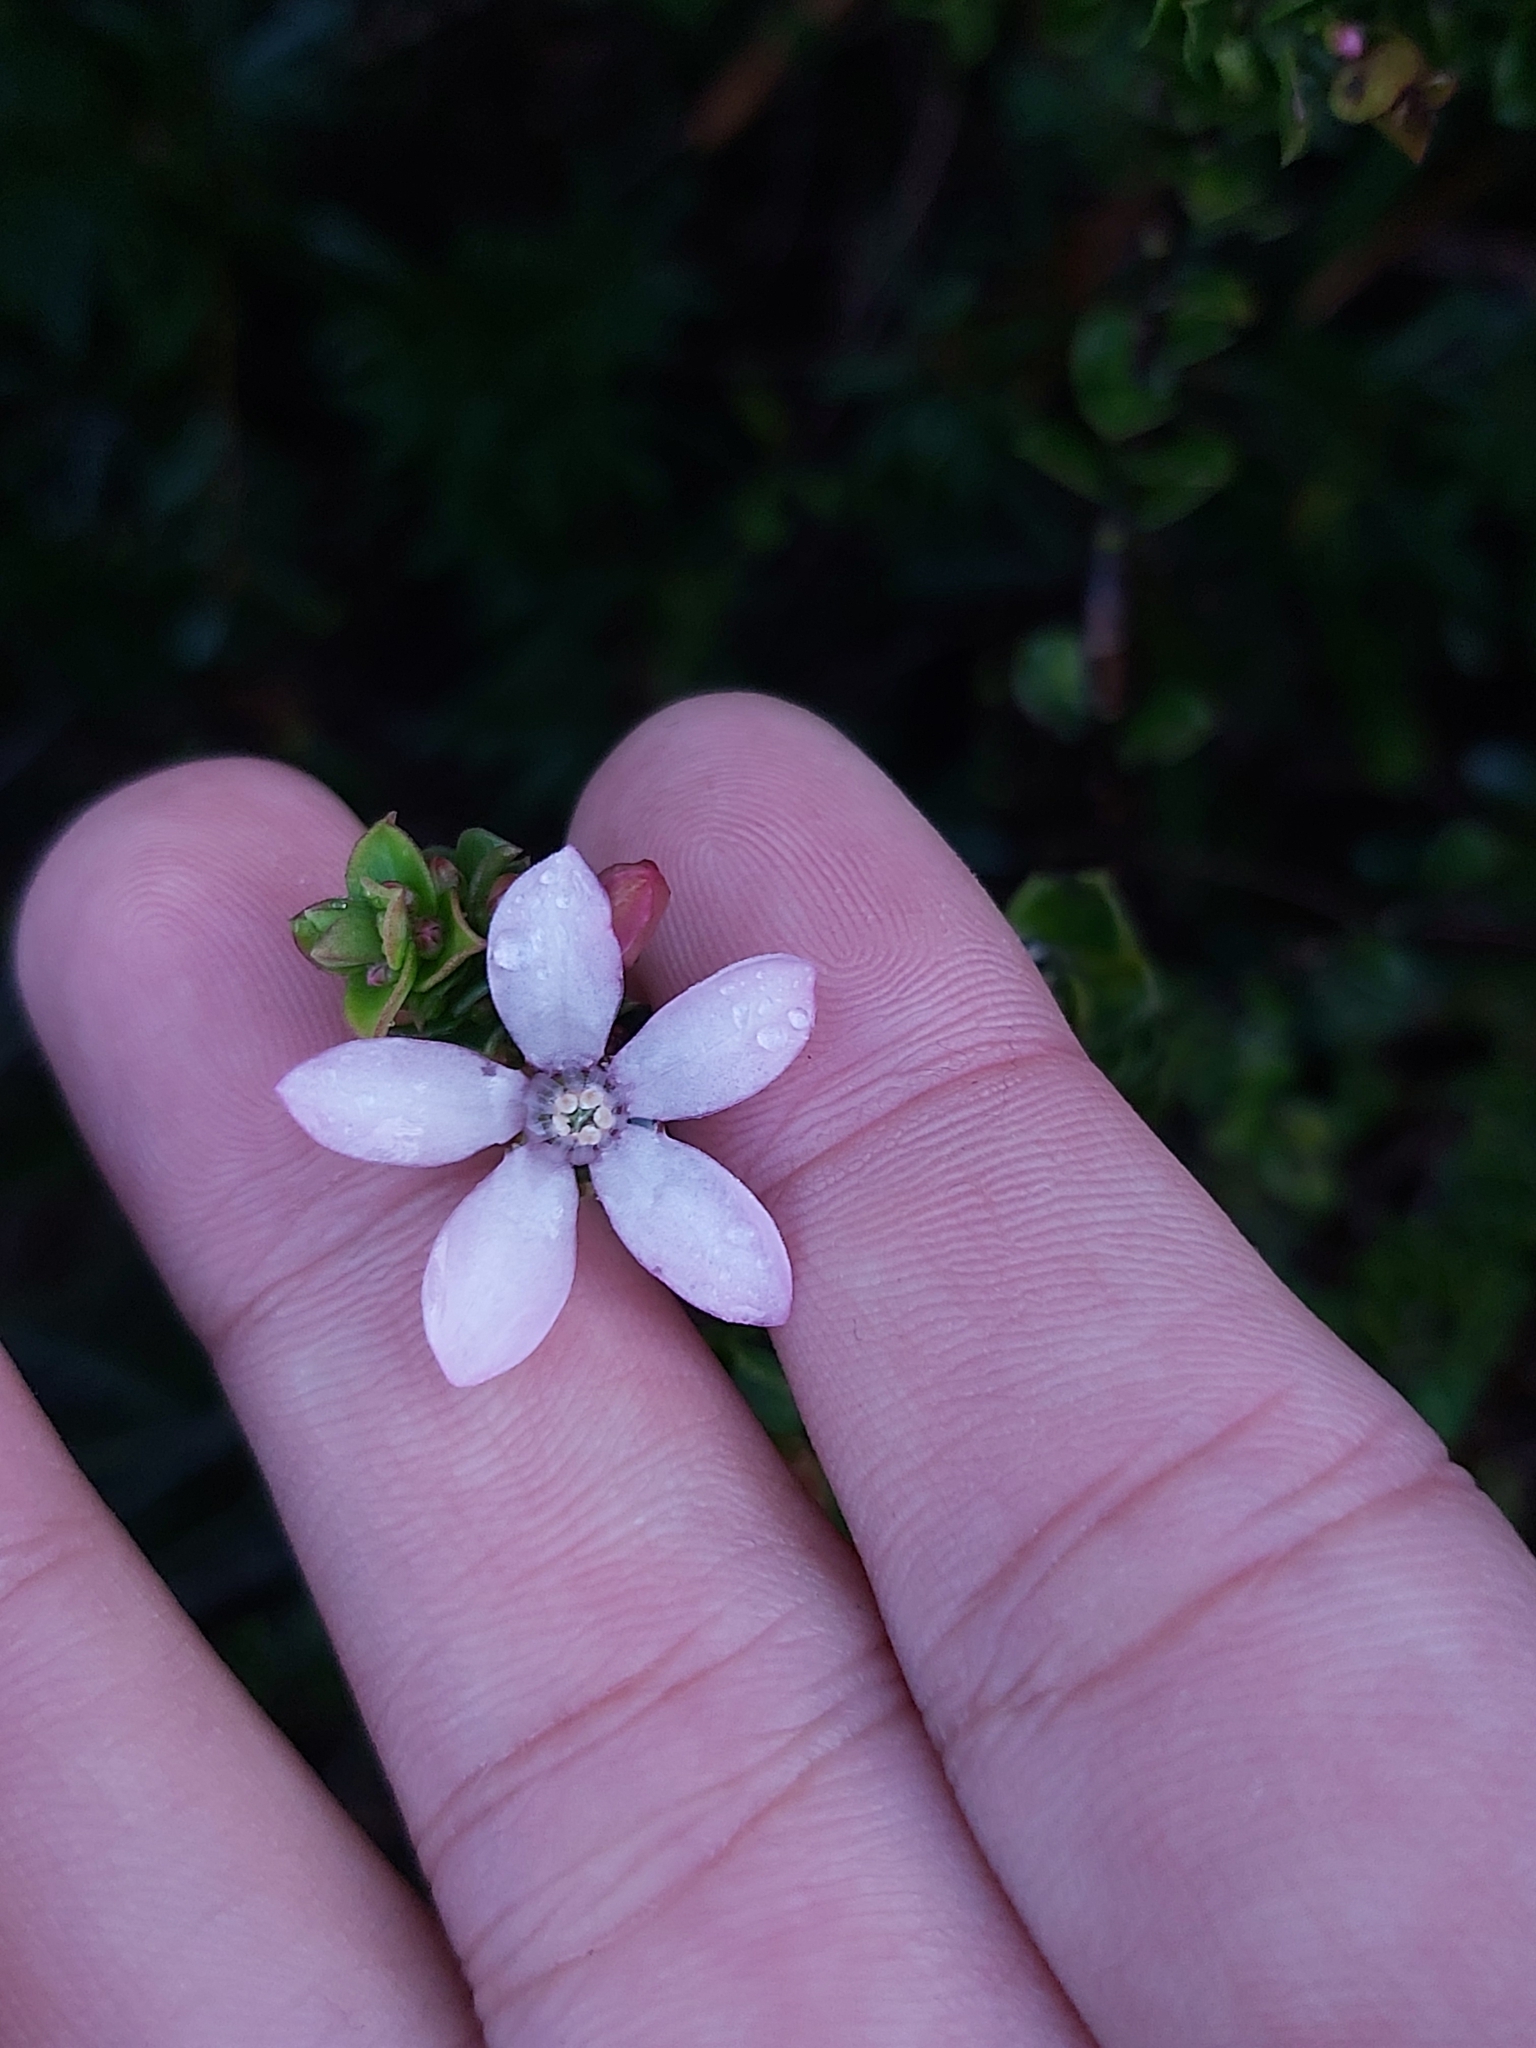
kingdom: Plantae
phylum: Tracheophyta
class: Magnoliopsida
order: Sapindales
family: Rutaceae
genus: Philotheca
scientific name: Philotheca buxifolia
